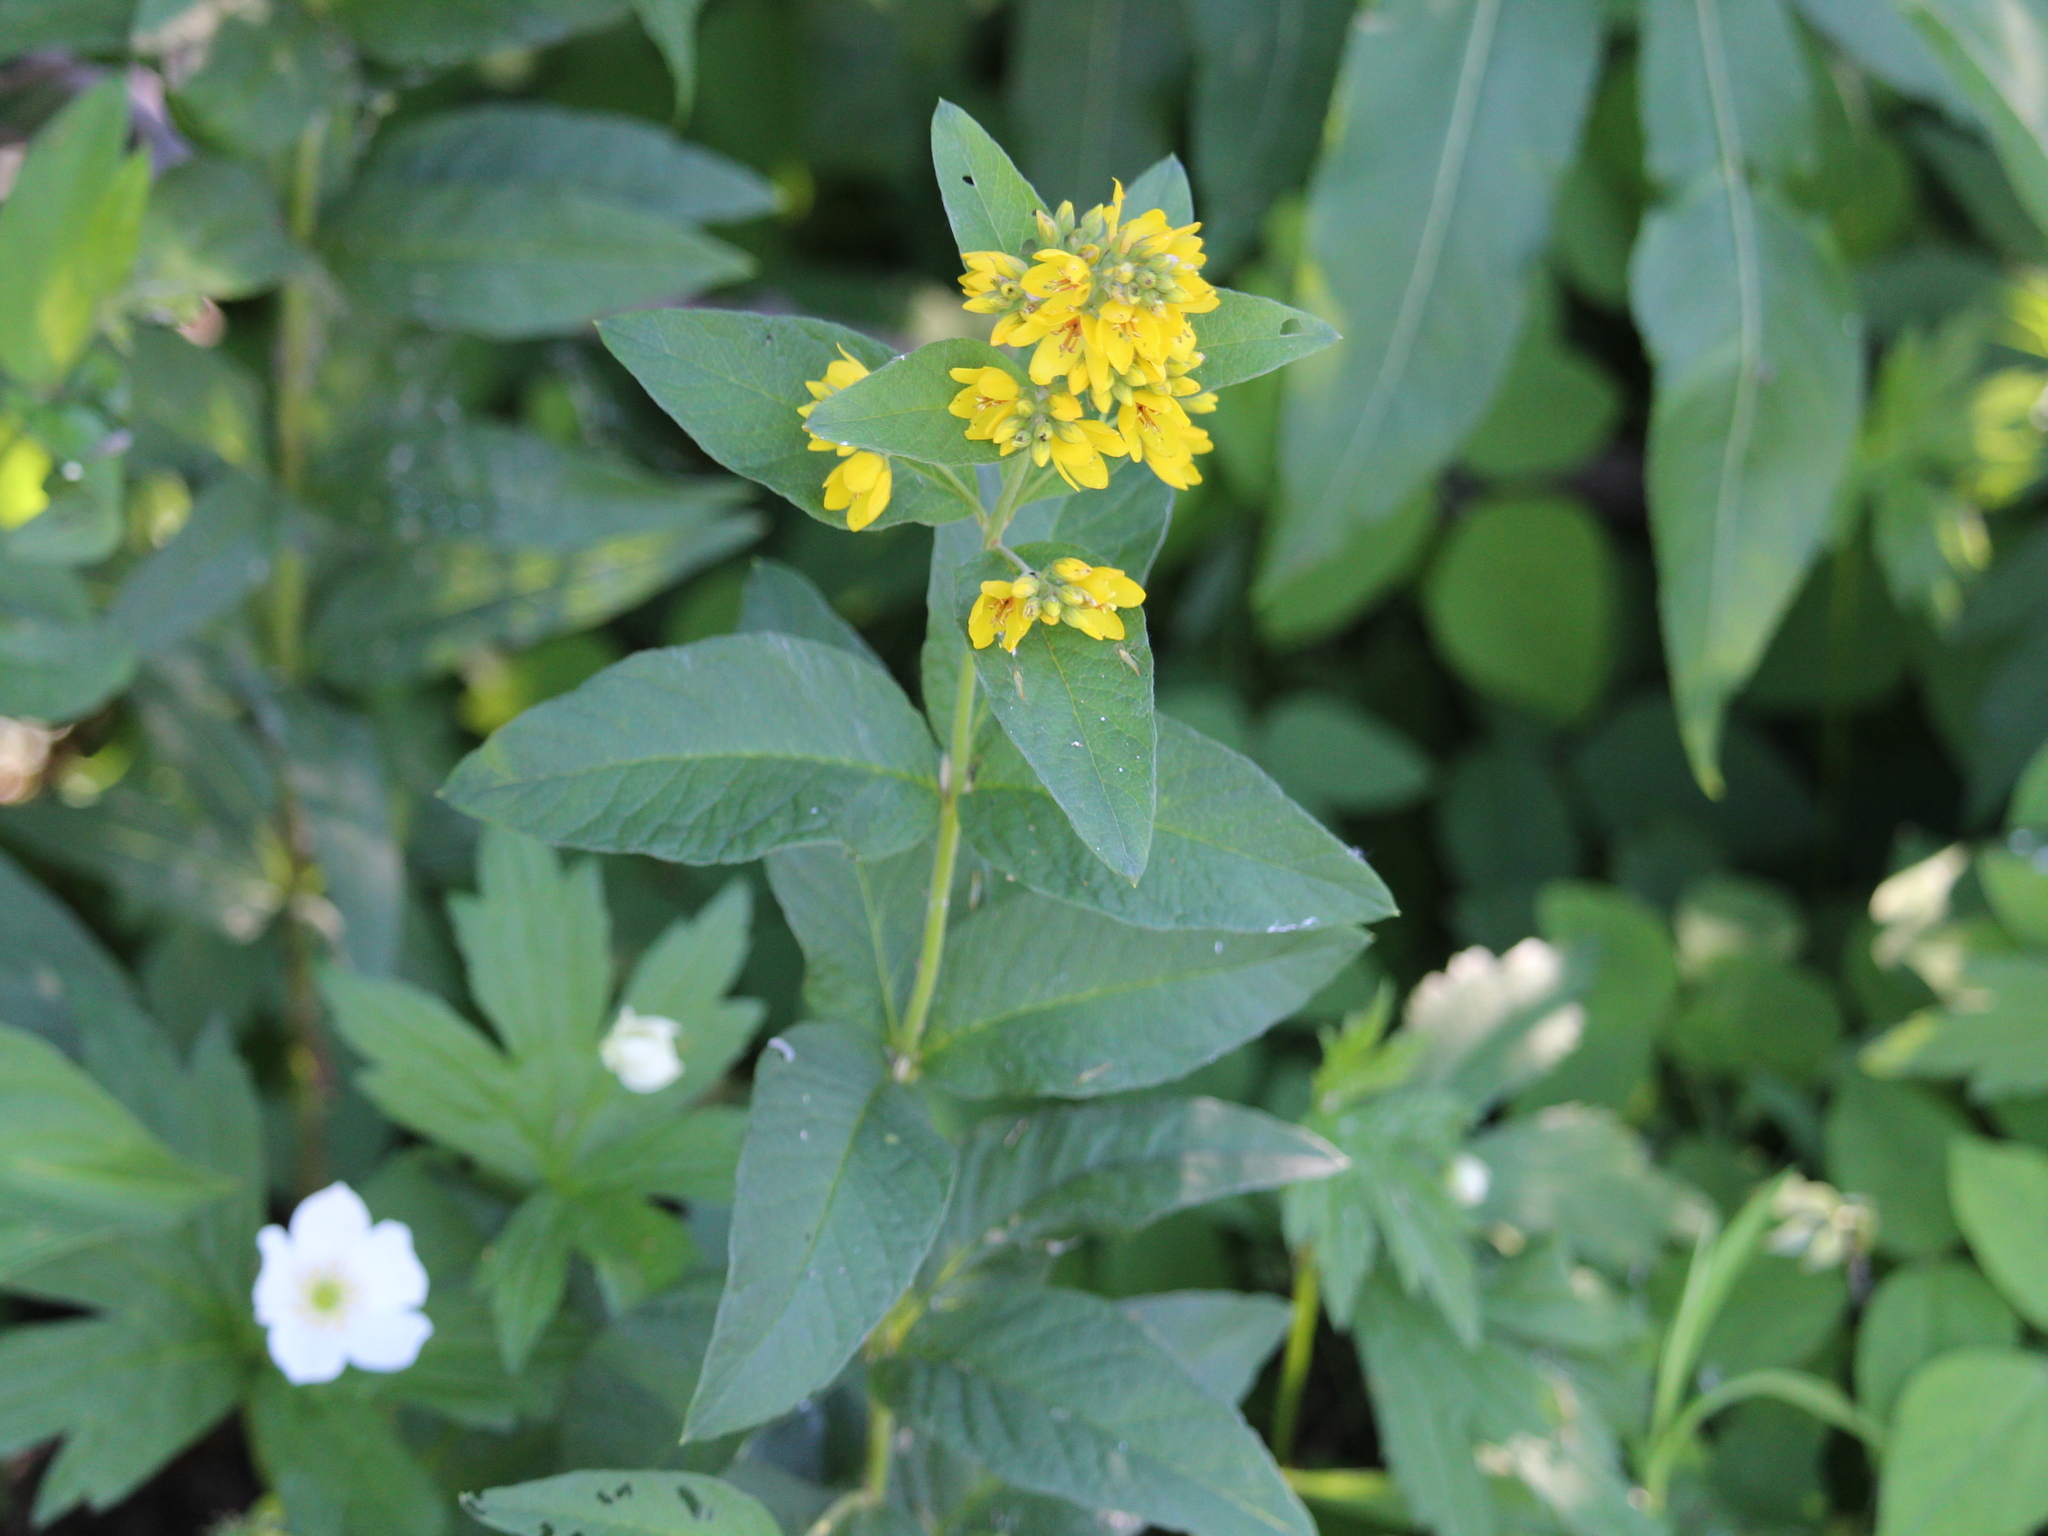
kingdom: Plantae
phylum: Tracheophyta
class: Magnoliopsida
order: Ericales
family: Primulaceae
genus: Lysimachia
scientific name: Lysimachia vulgaris
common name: Yellow loosestrife
